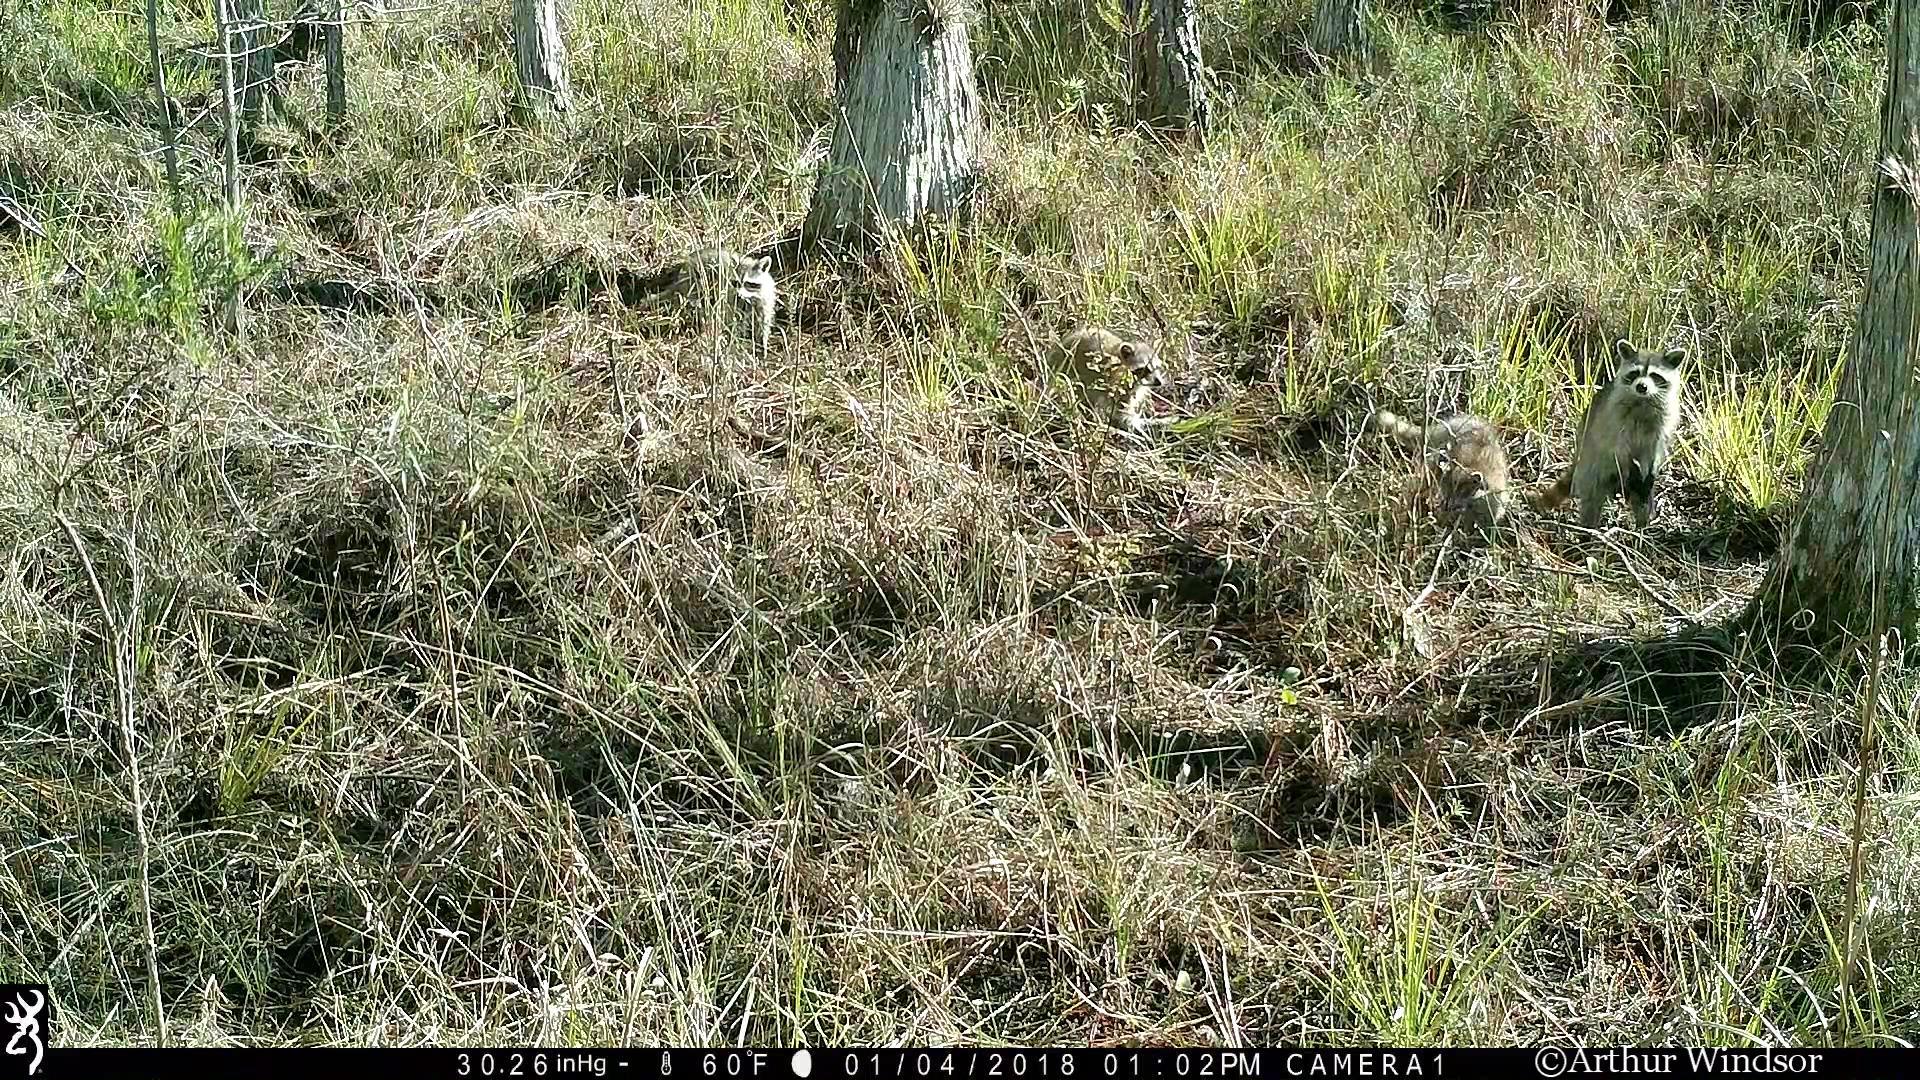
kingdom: Animalia
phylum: Chordata
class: Mammalia
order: Carnivora
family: Procyonidae
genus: Procyon
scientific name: Procyon lotor
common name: Raccoon
